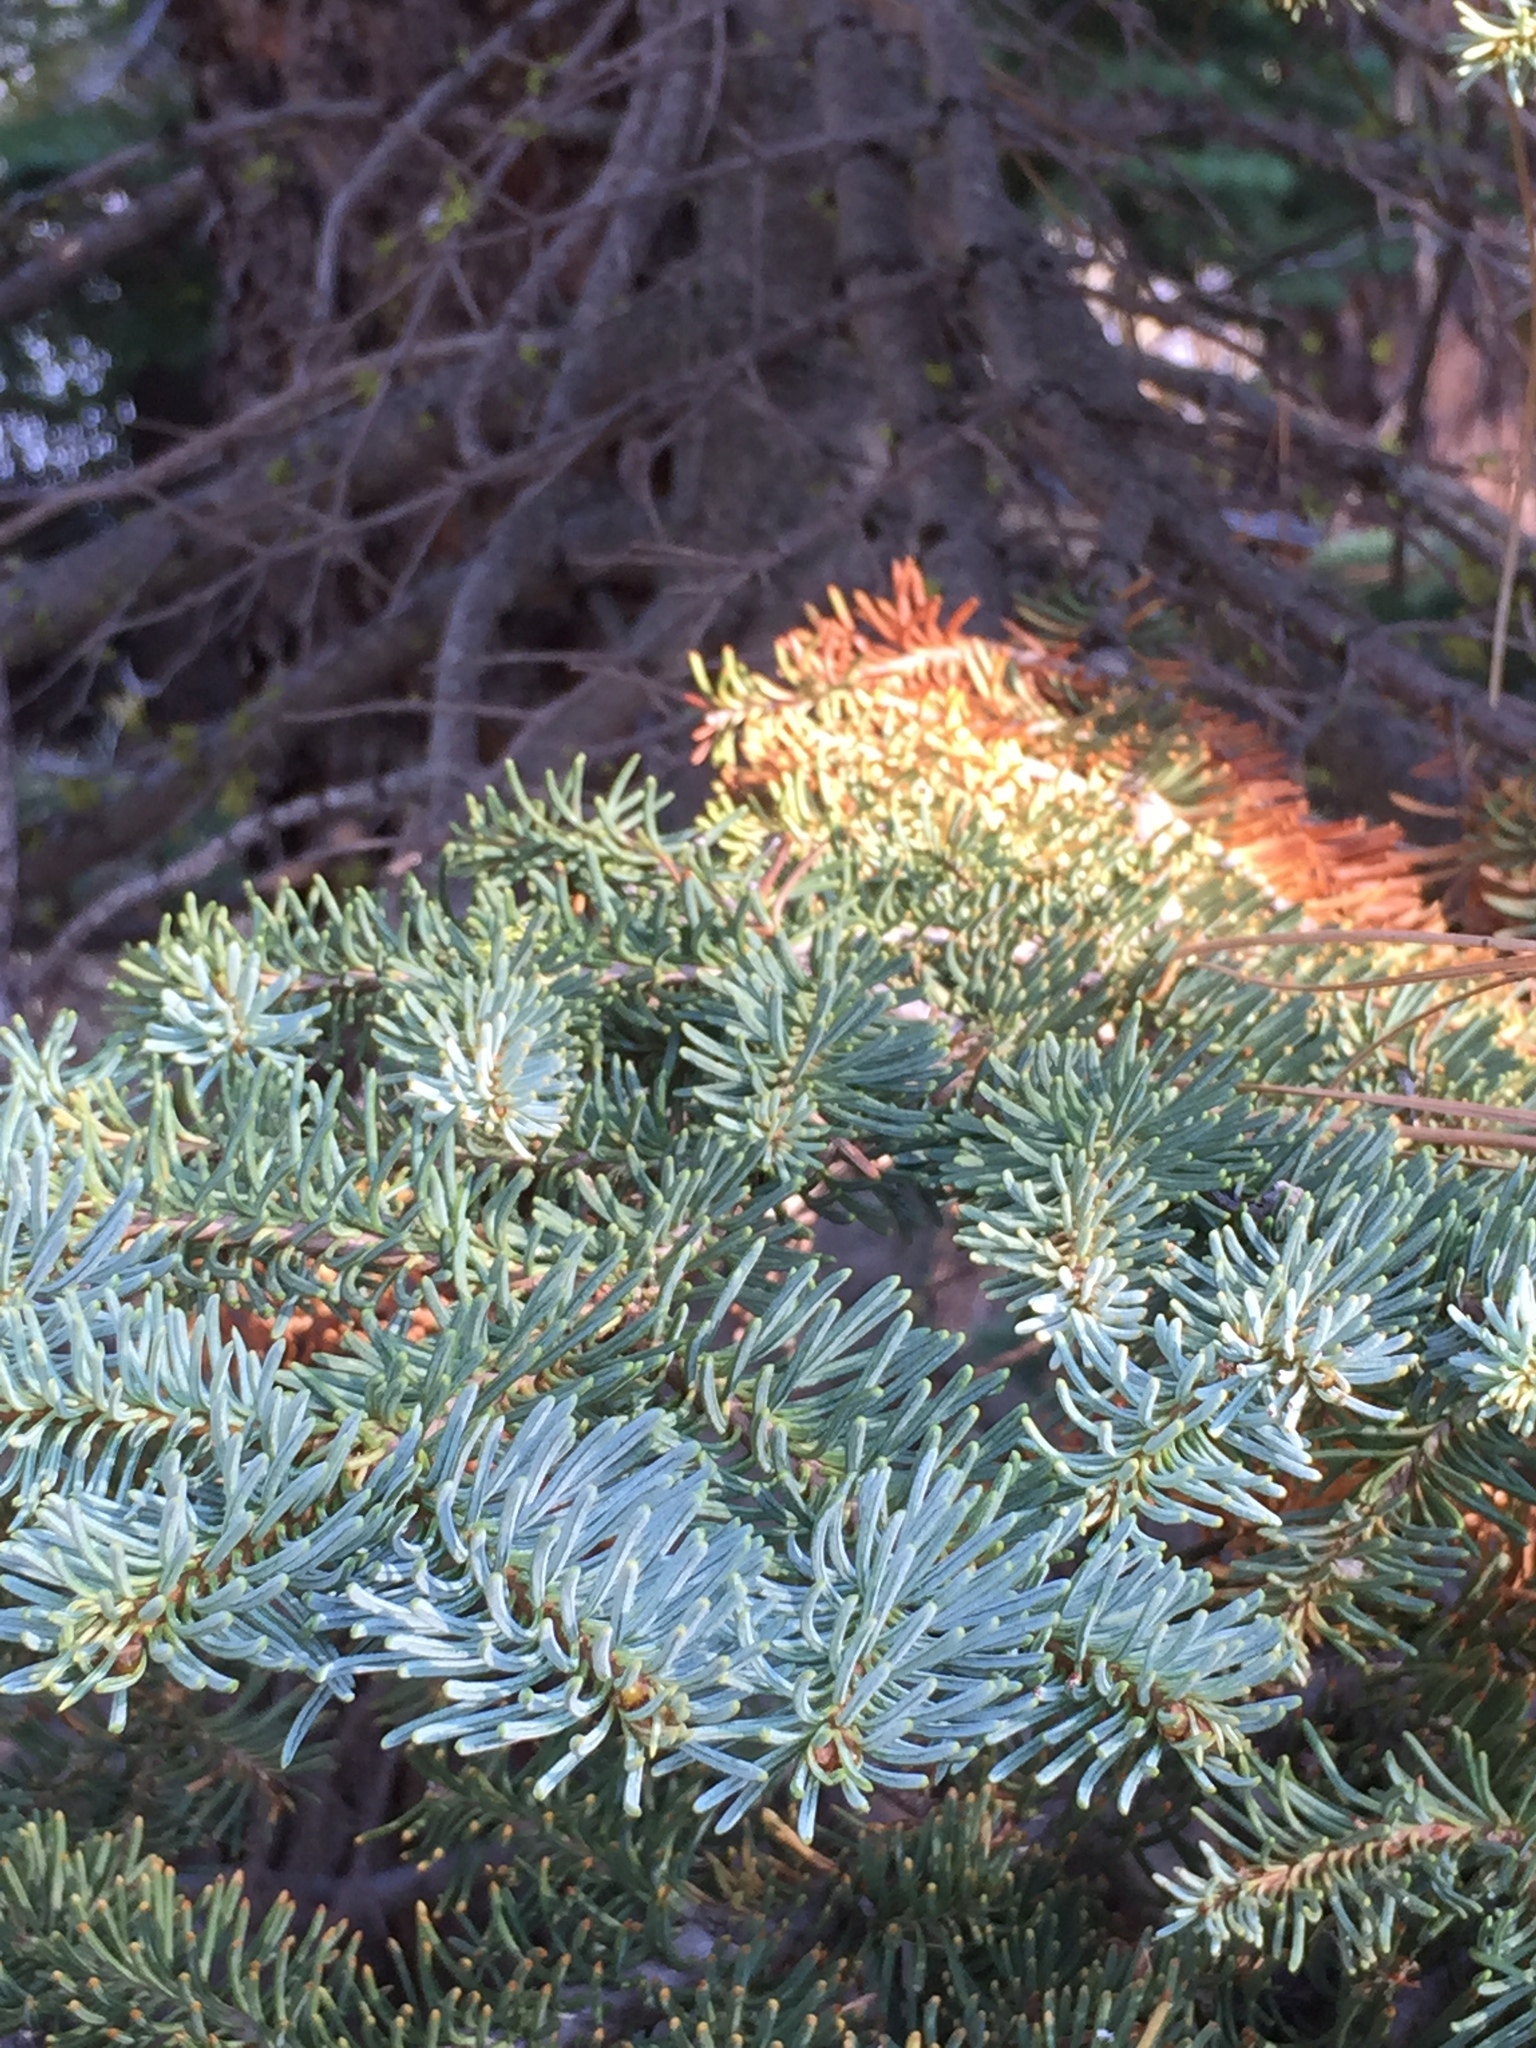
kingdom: Plantae
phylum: Tracheophyta
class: Pinopsida
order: Pinales
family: Pinaceae
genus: Abies
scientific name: Abies magnifica bis
